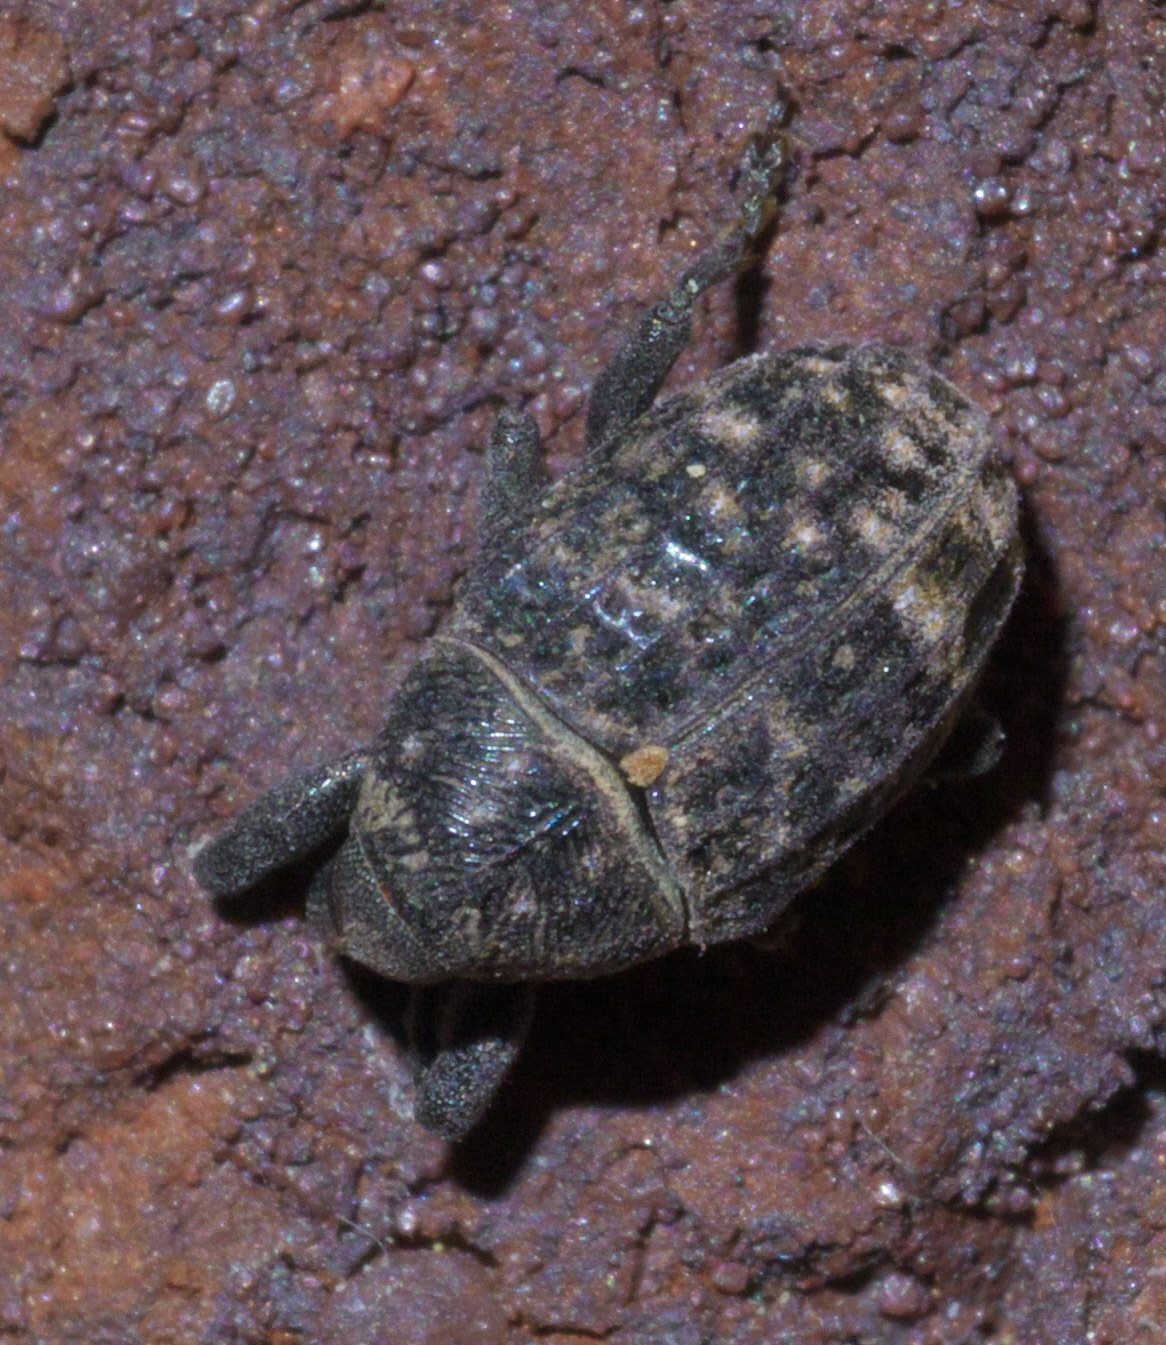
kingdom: Animalia
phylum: Arthropoda
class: Insecta
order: Coleoptera
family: Curculionidae
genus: Rhyssomatus
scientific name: Rhyssomatus palmacollis
